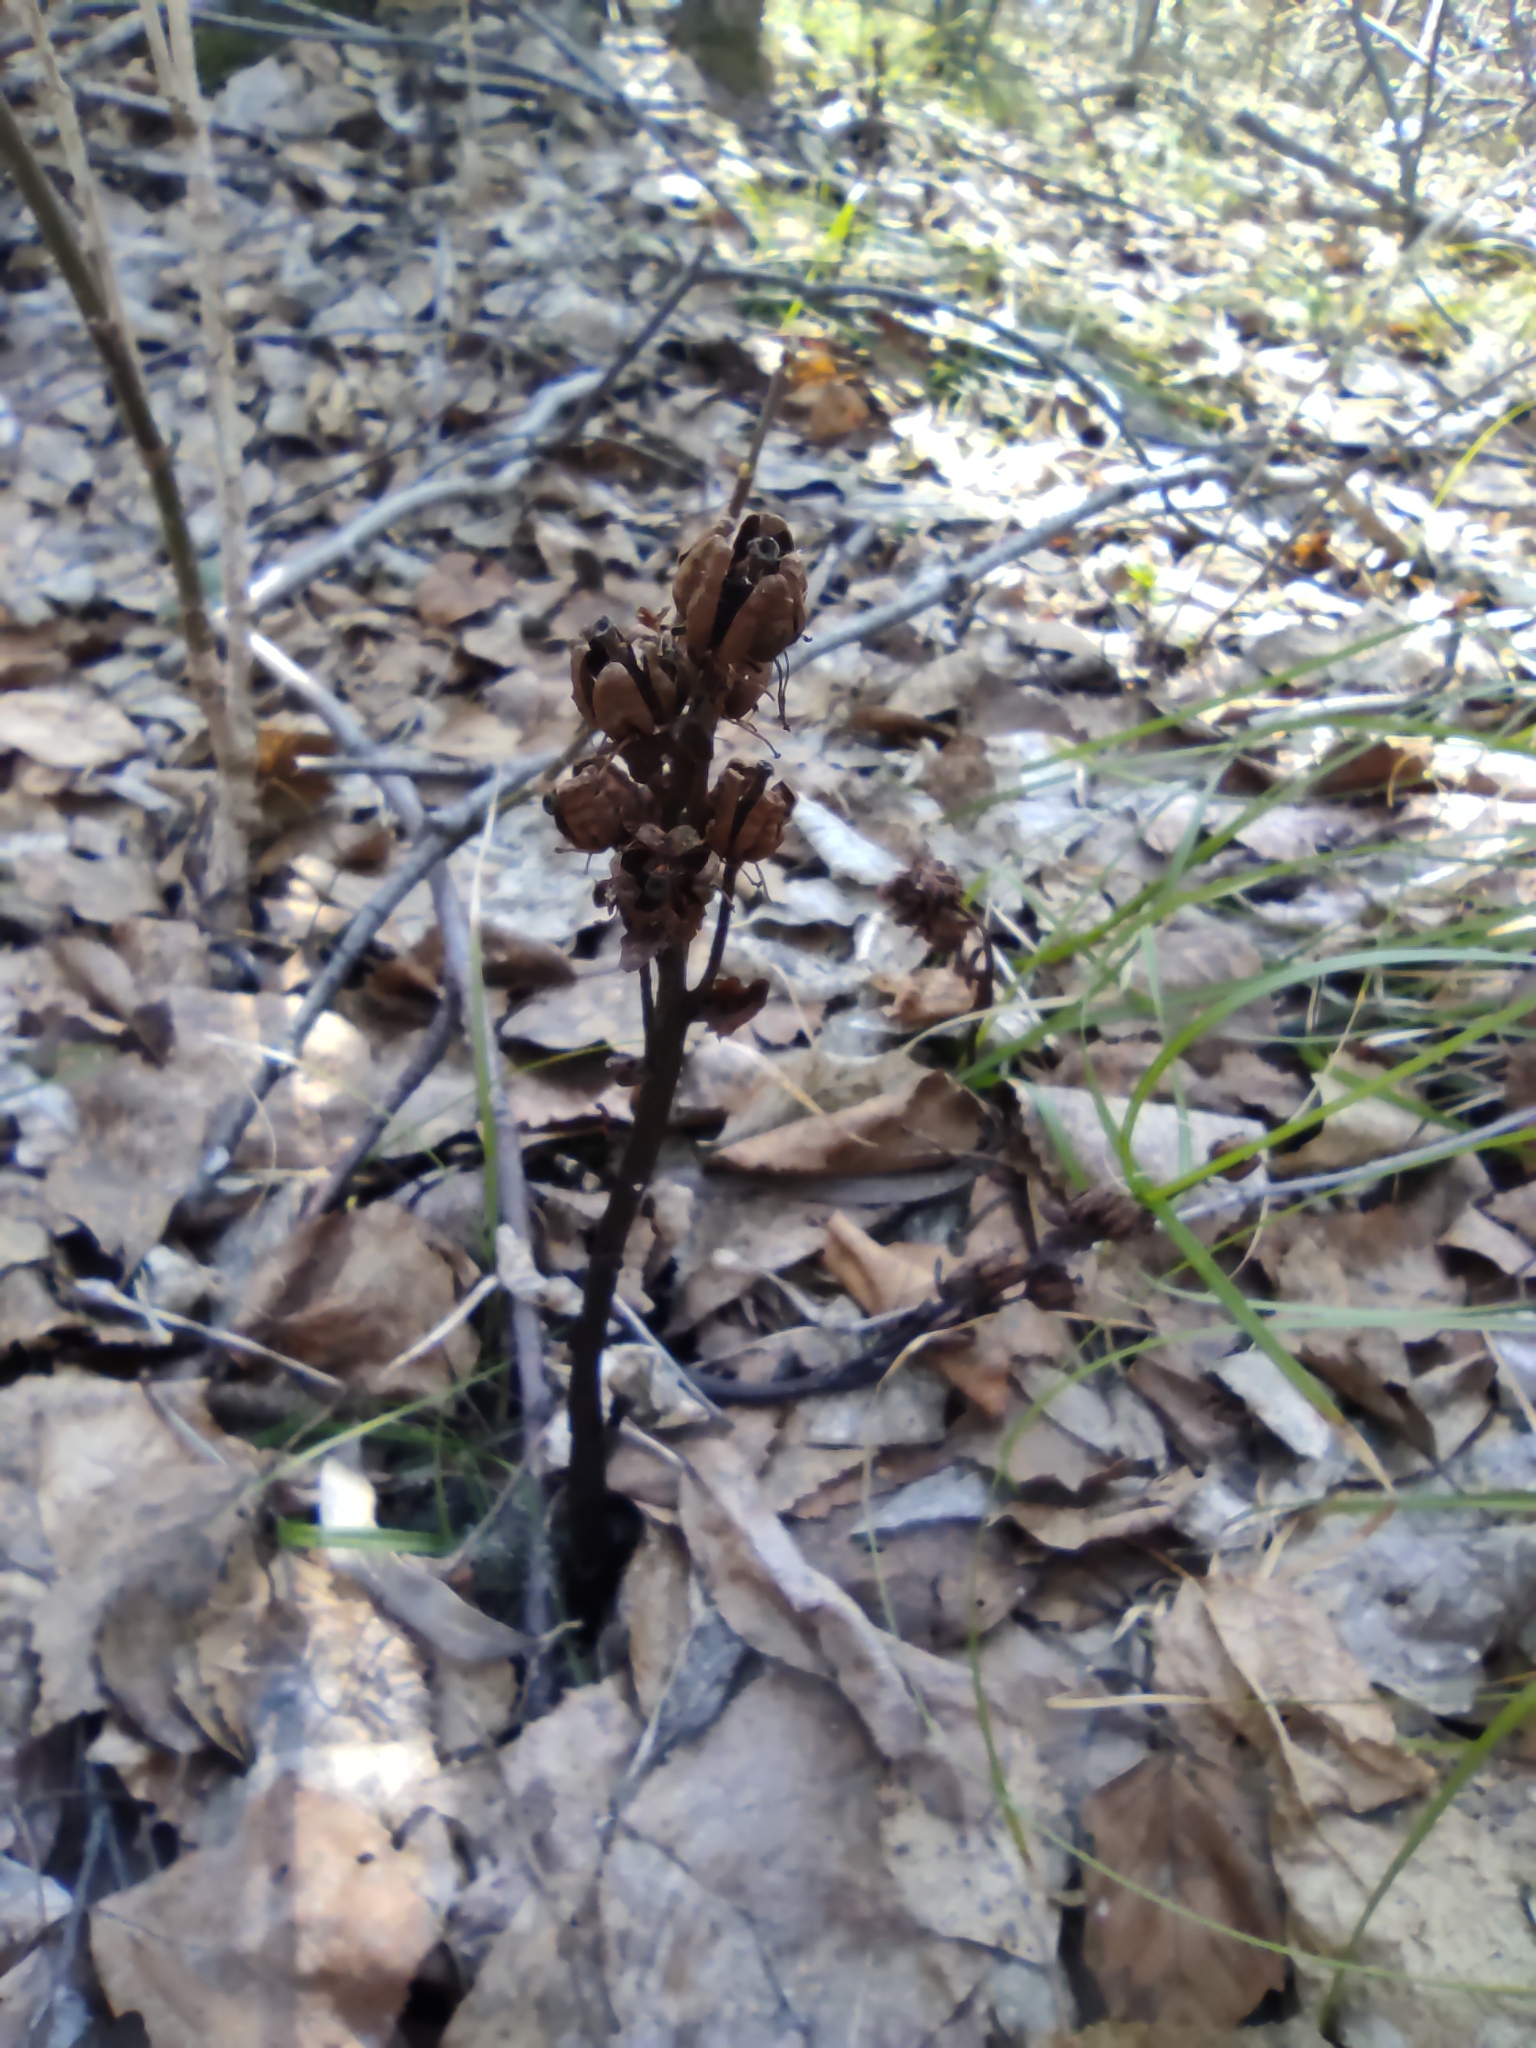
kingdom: Plantae
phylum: Tracheophyta
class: Magnoliopsida
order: Ericales
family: Ericaceae
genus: Hypopitys
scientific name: Hypopitys monotropa
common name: Yellow bird's-nest
